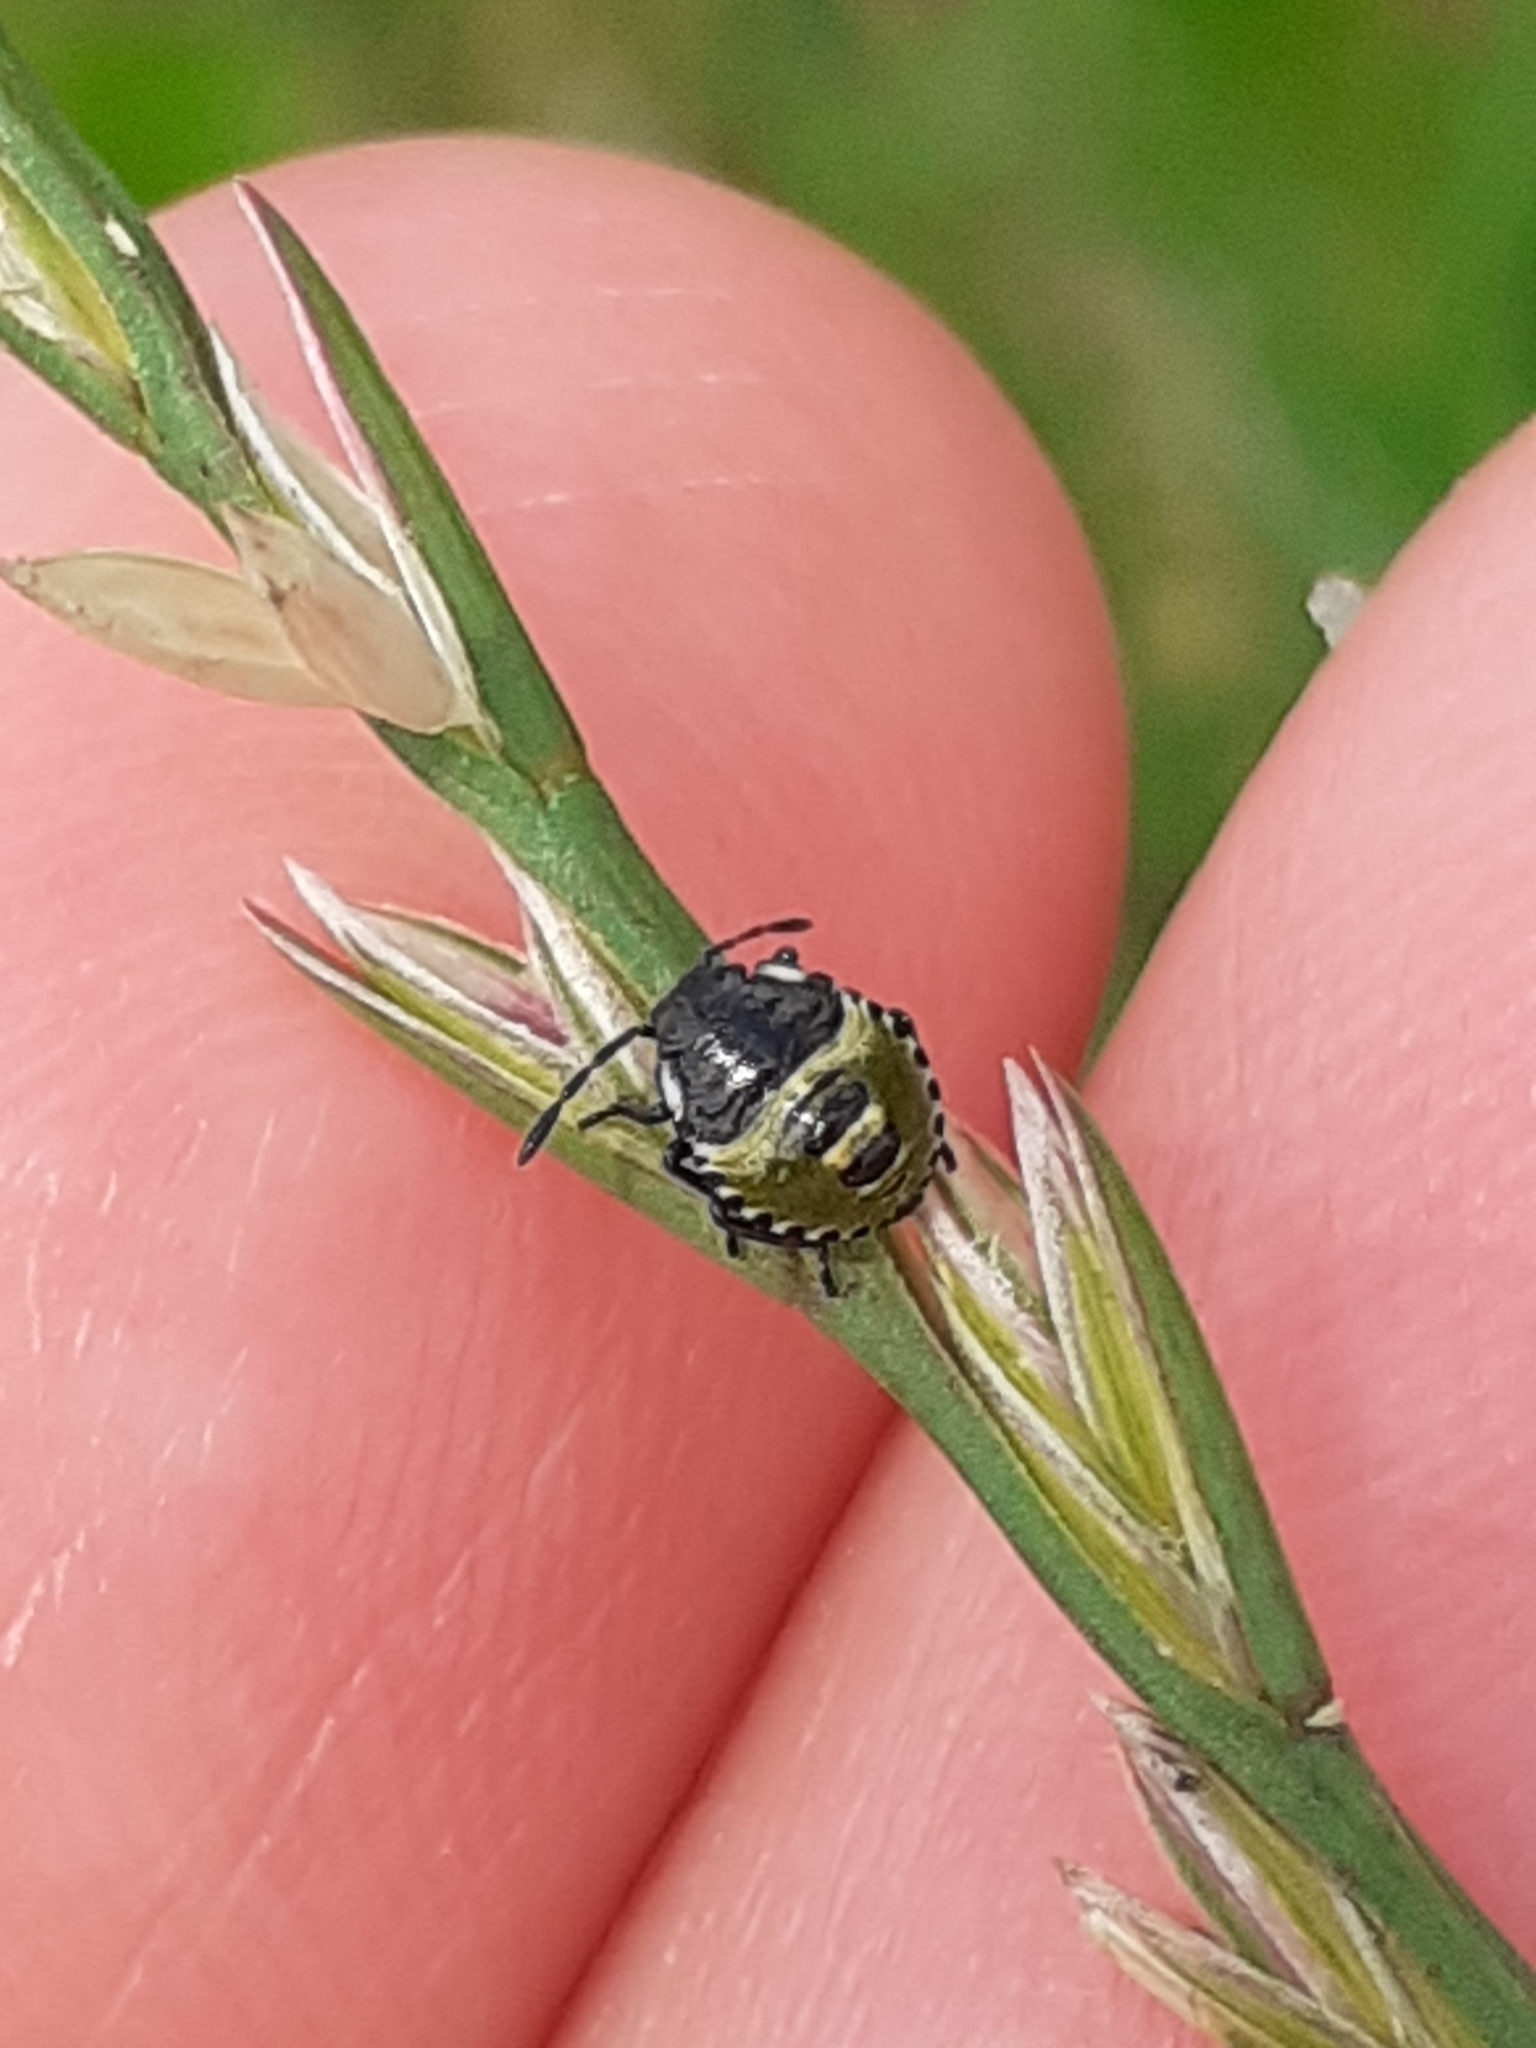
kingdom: Animalia
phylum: Arthropoda
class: Insecta
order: Hemiptera
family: Pentatomidae
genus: Palomena
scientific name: Palomena prasina
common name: Green shieldbug
